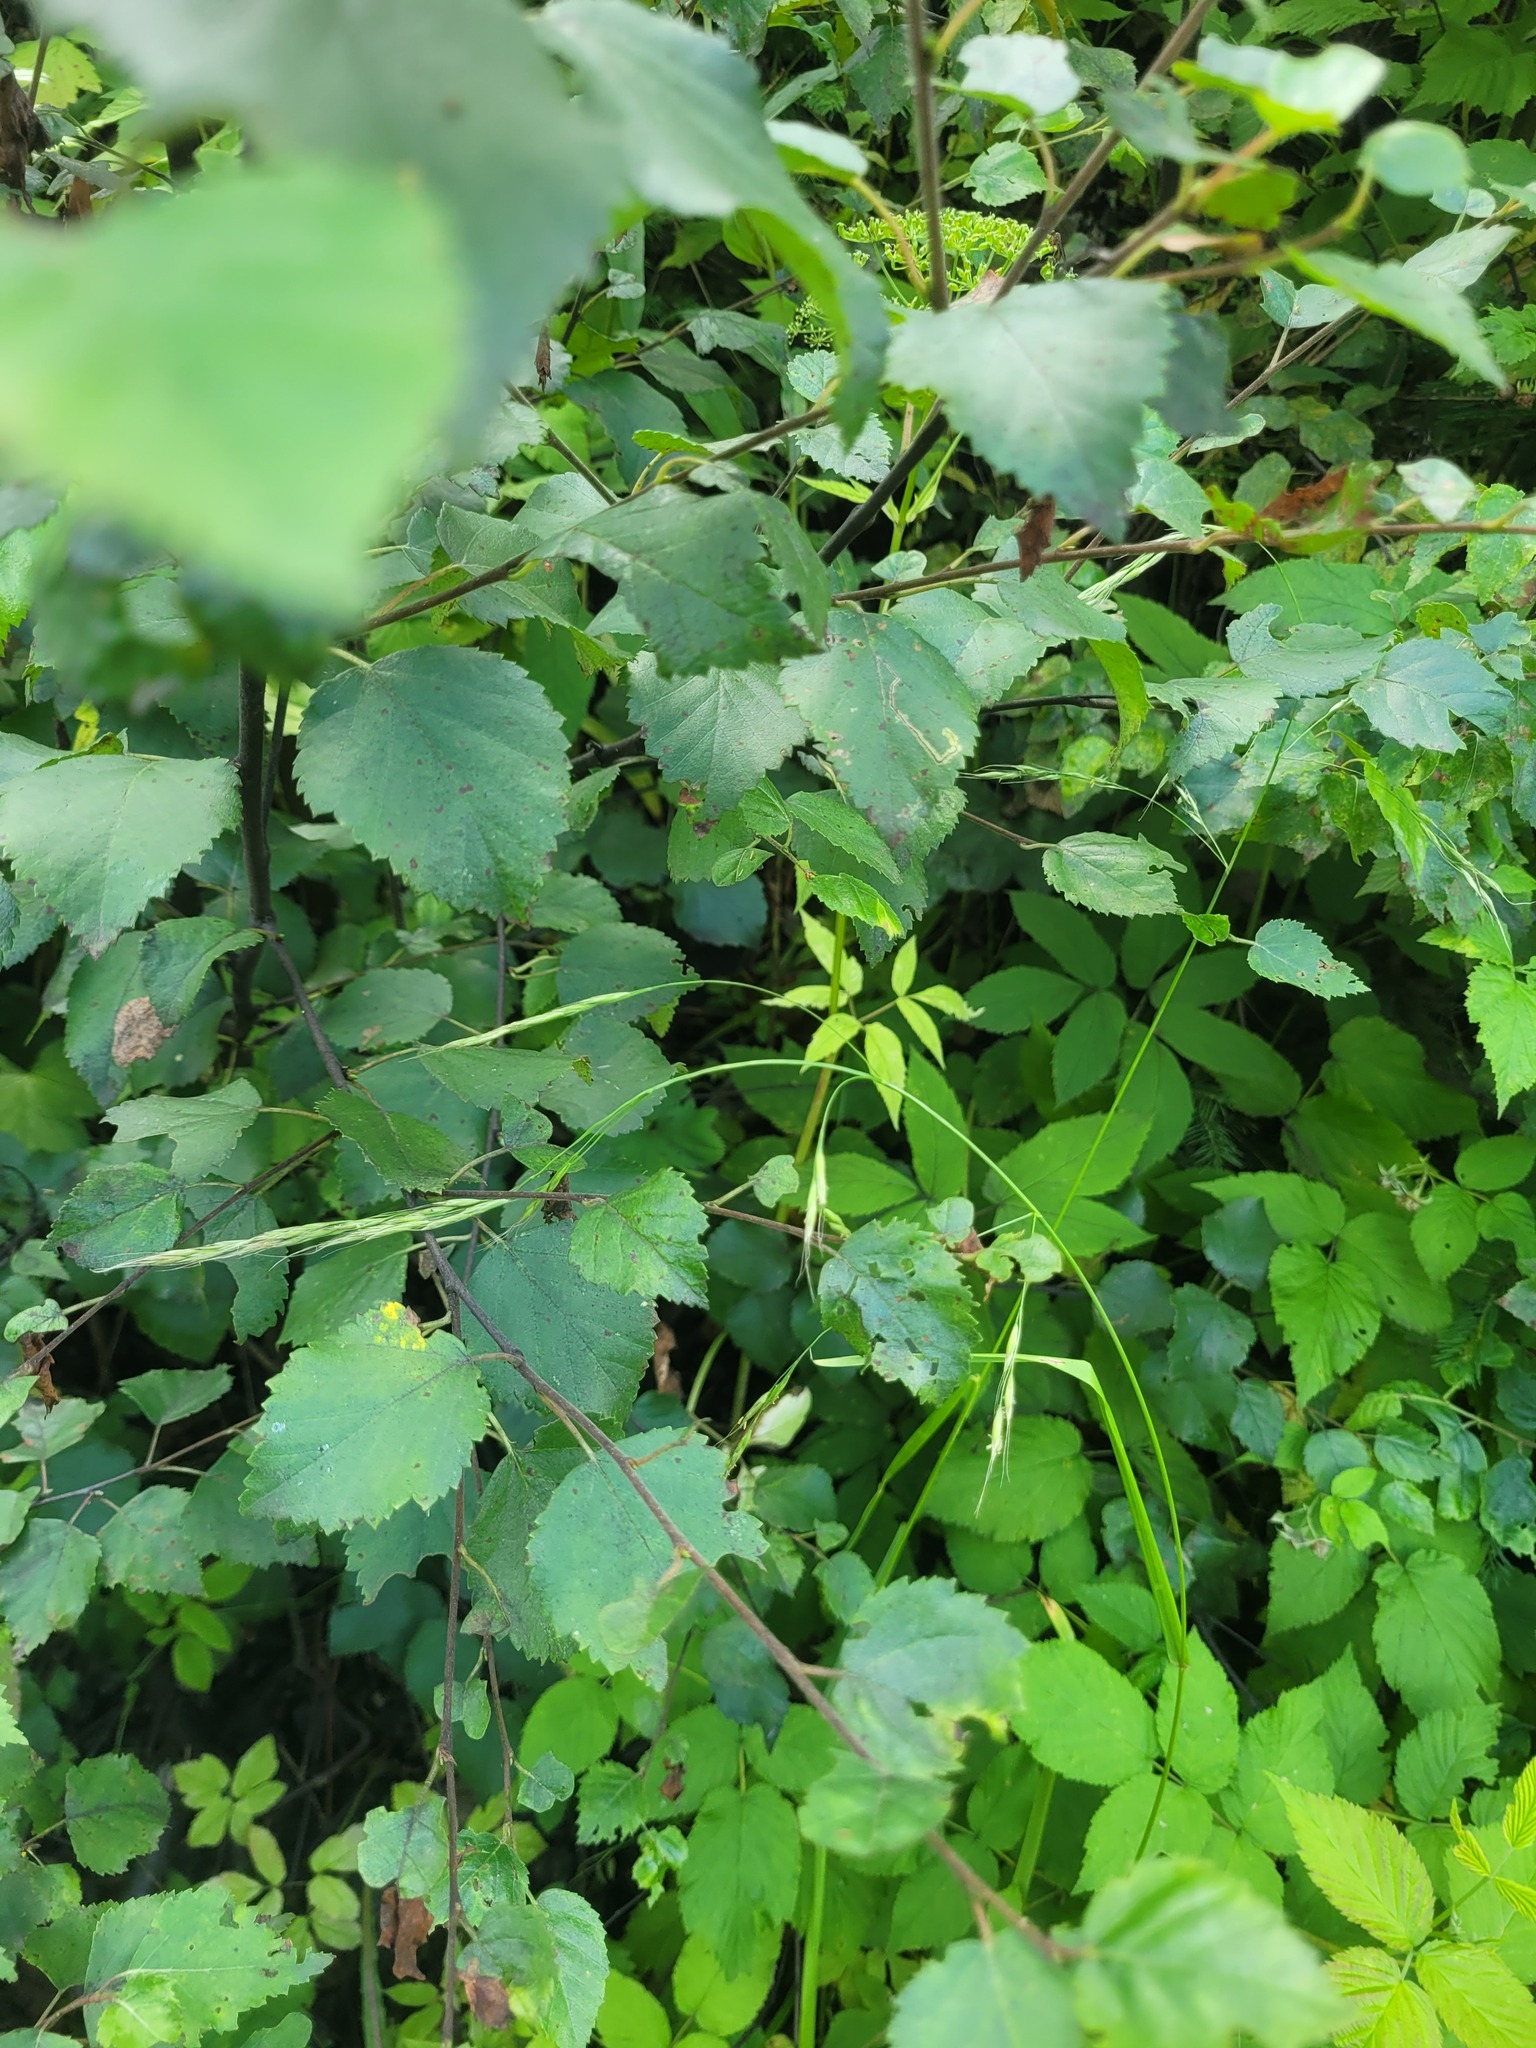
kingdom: Plantae
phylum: Tracheophyta
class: Liliopsida
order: Poales
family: Poaceae
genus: Lolium
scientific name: Lolium giganteum
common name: Giant fescue
